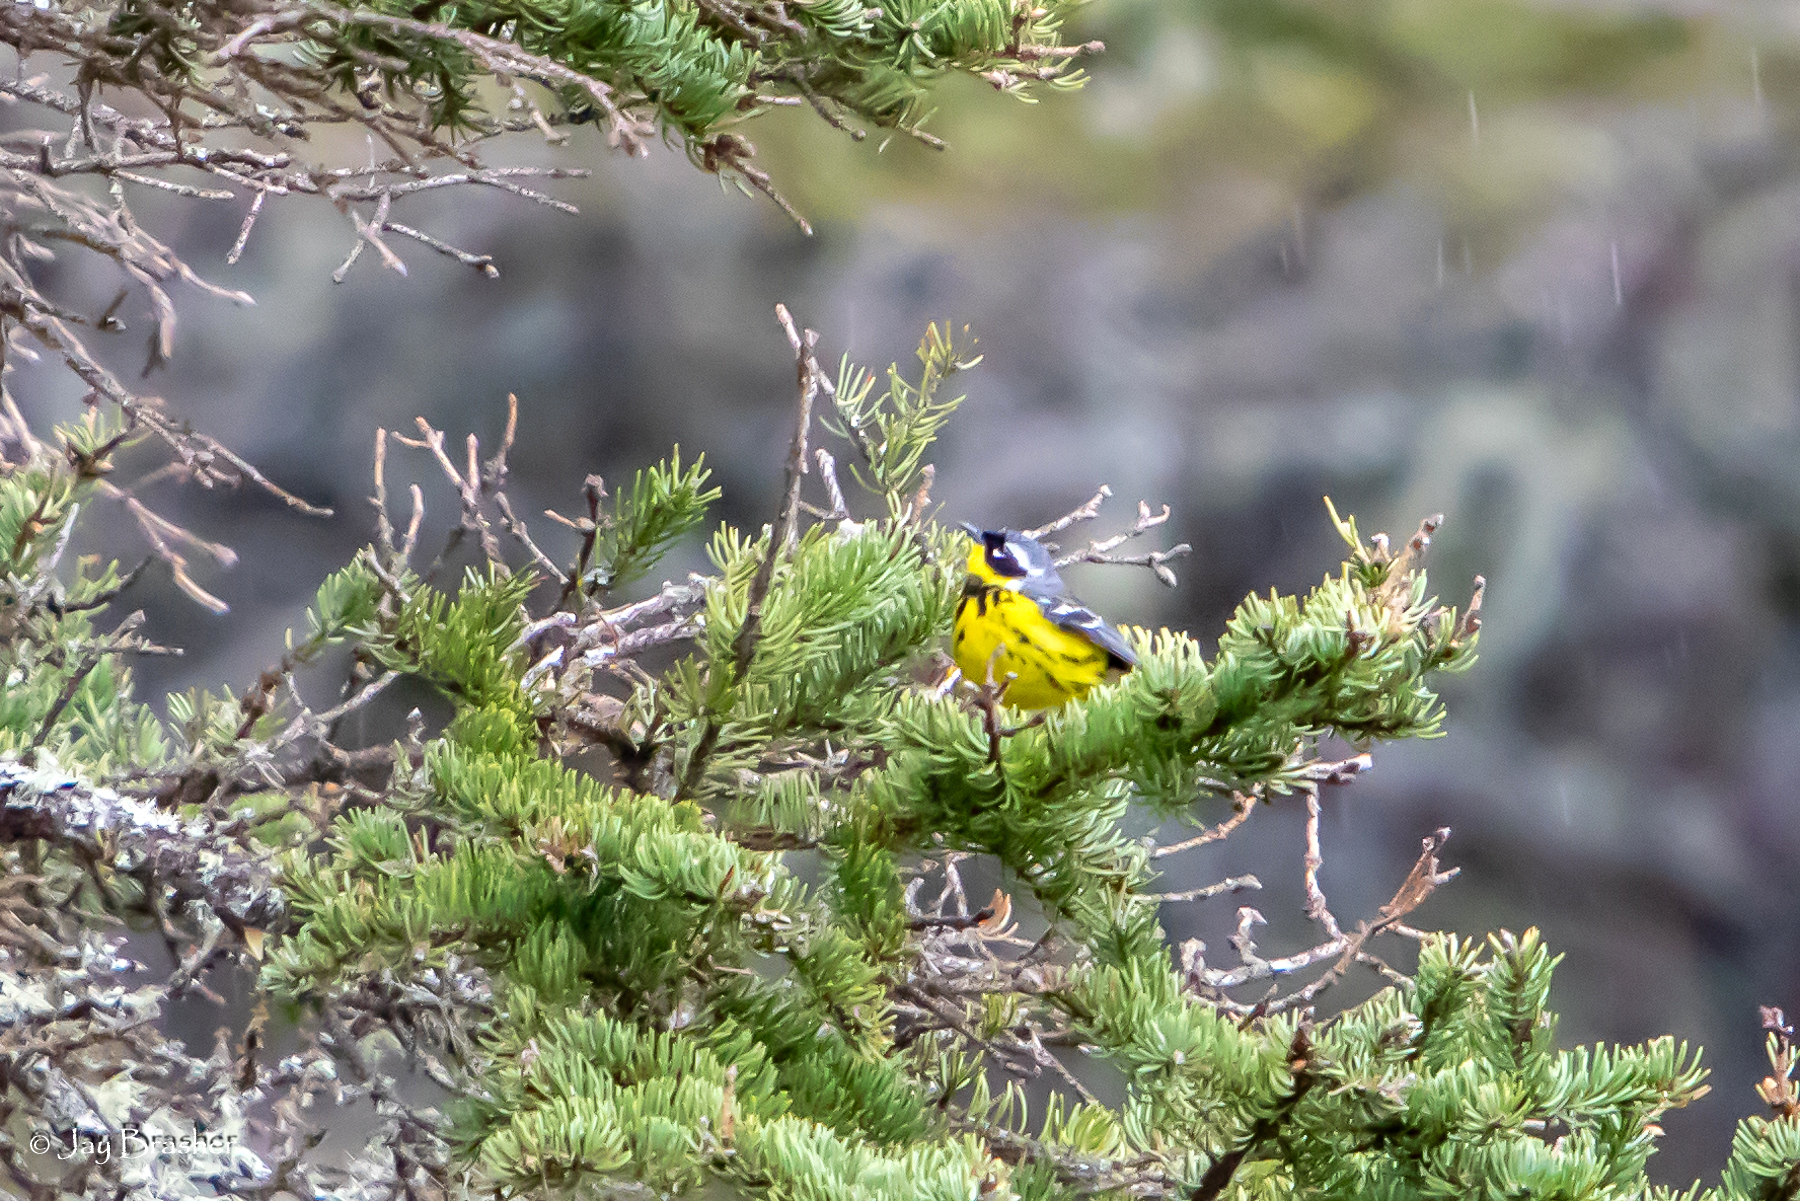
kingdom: Animalia
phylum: Chordata
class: Aves
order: Passeriformes
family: Parulidae
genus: Setophaga
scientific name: Setophaga magnolia
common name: Magnolia warbler
